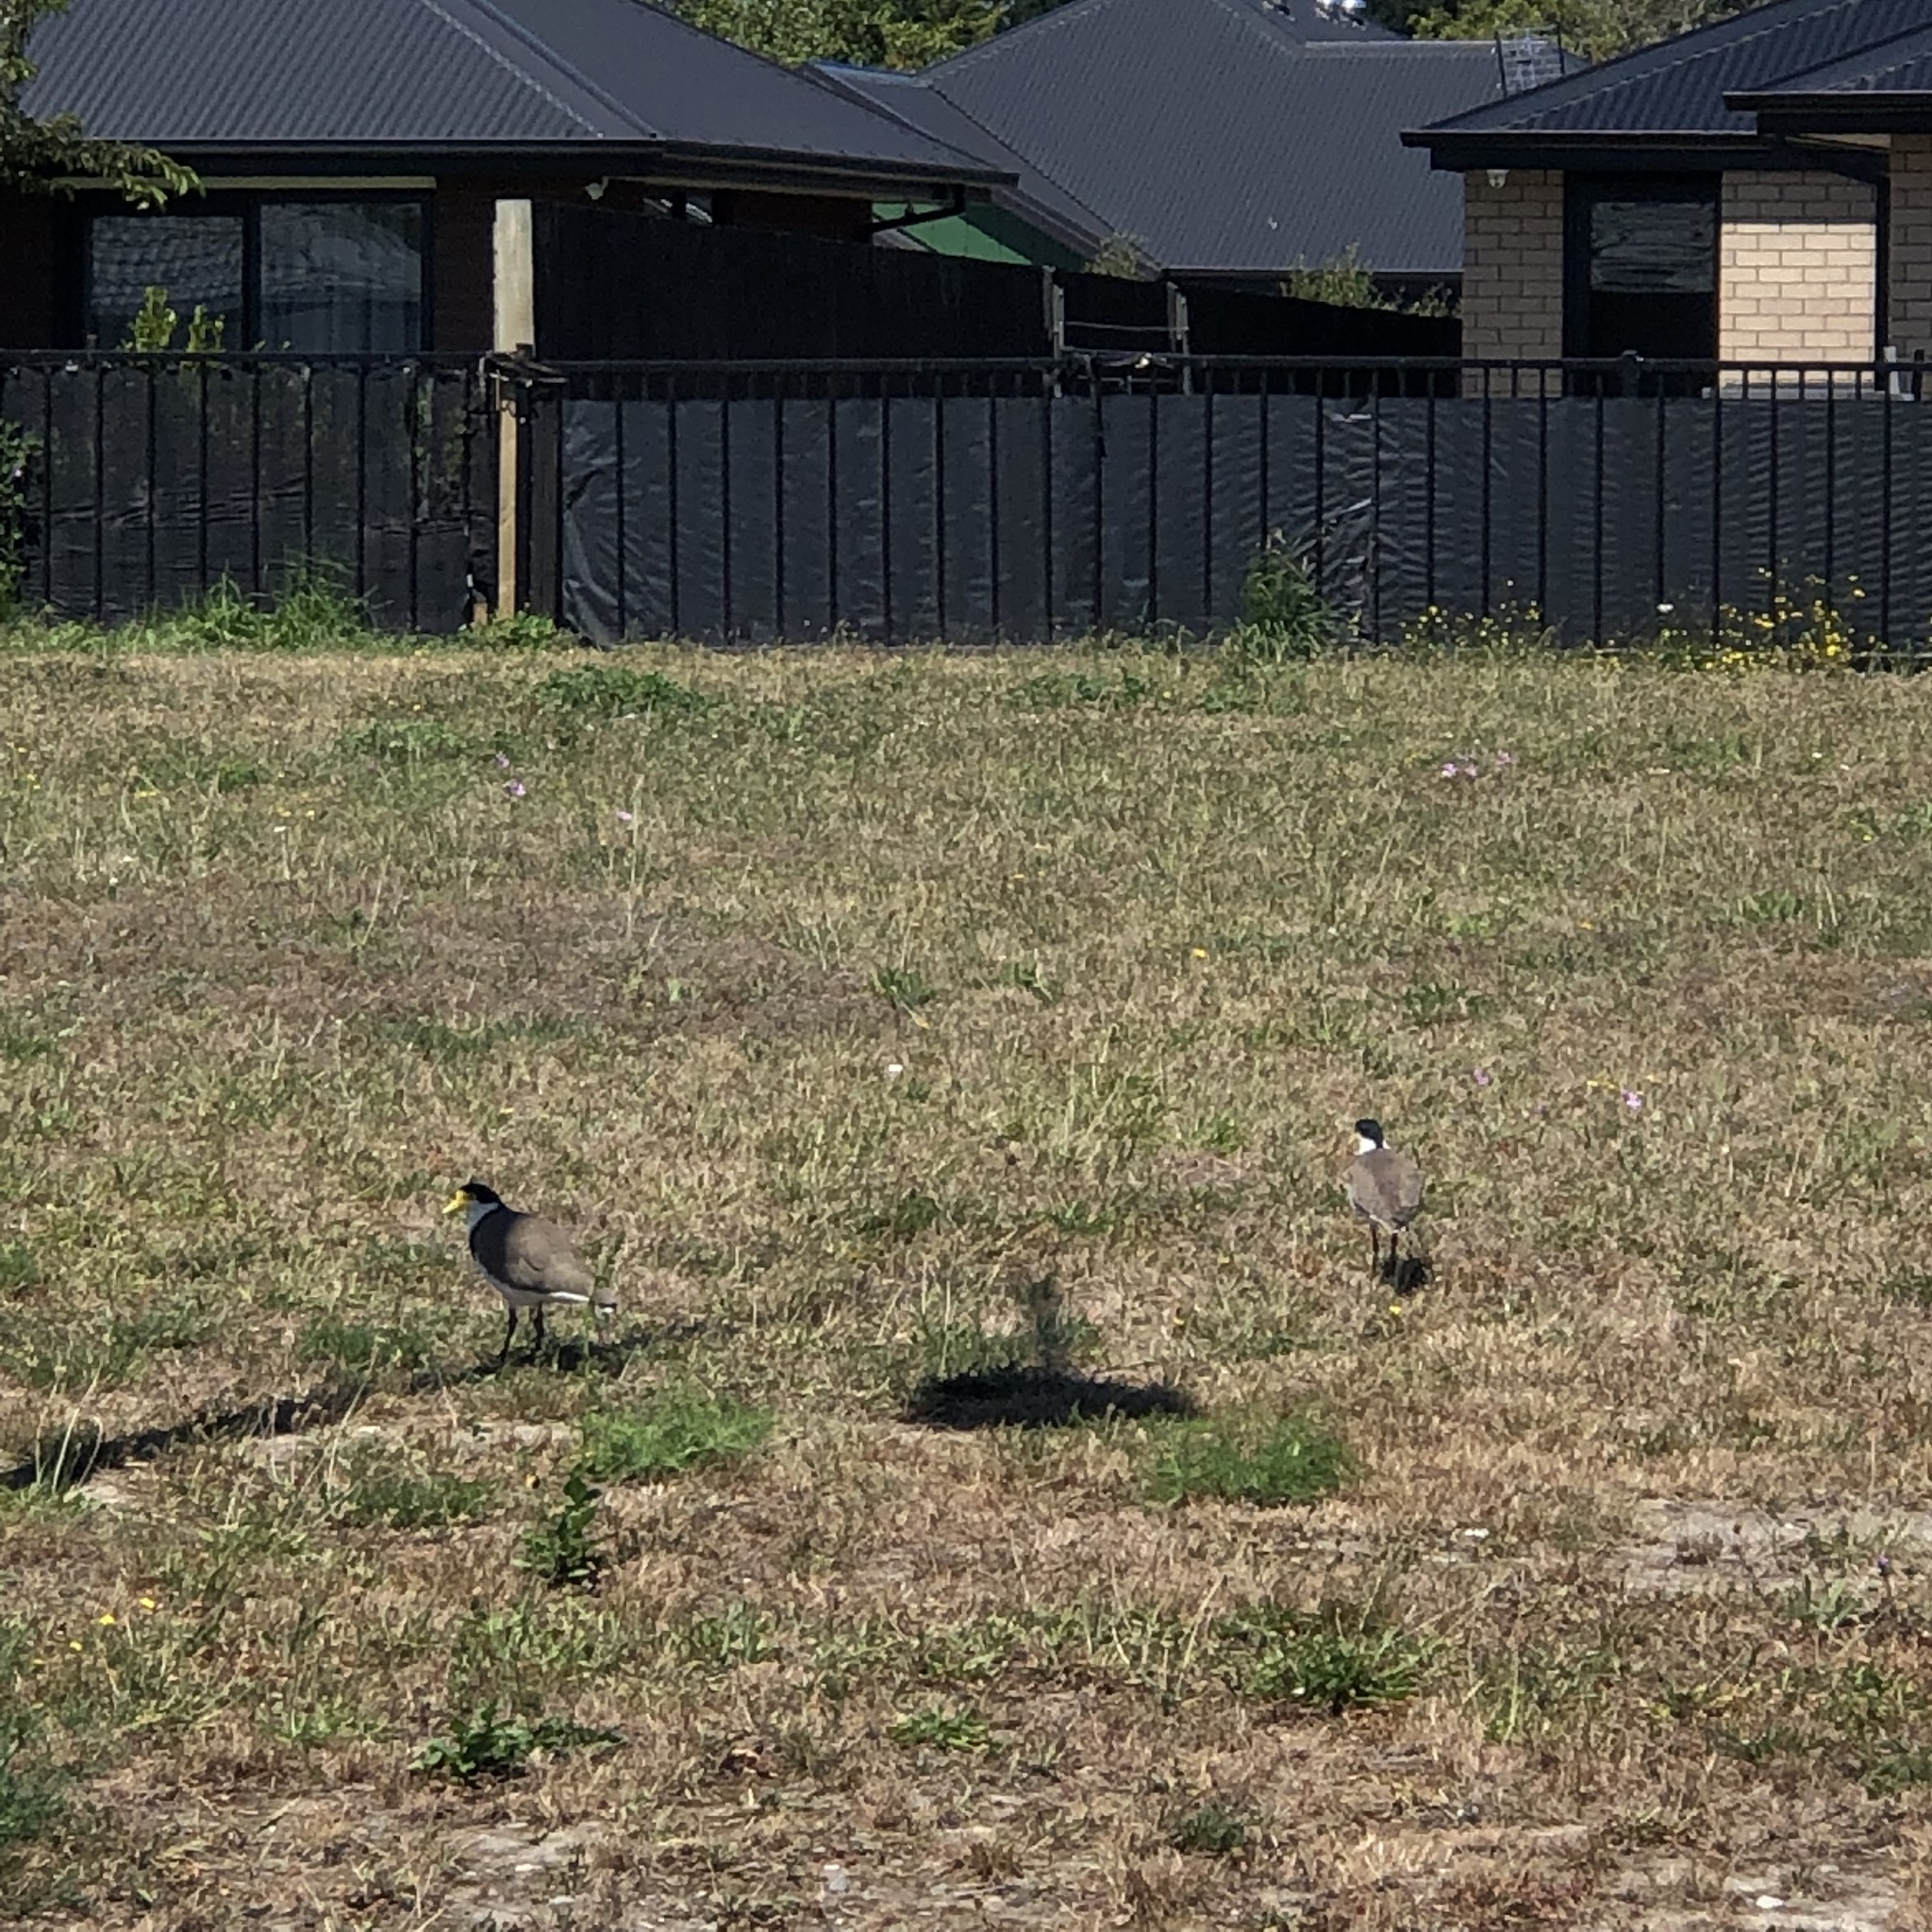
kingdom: Animalia
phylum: Chordata
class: Aves
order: Charadriiformes
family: Charadriidae
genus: Vanellus
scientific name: Vanellus miles
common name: Masked lapwing
